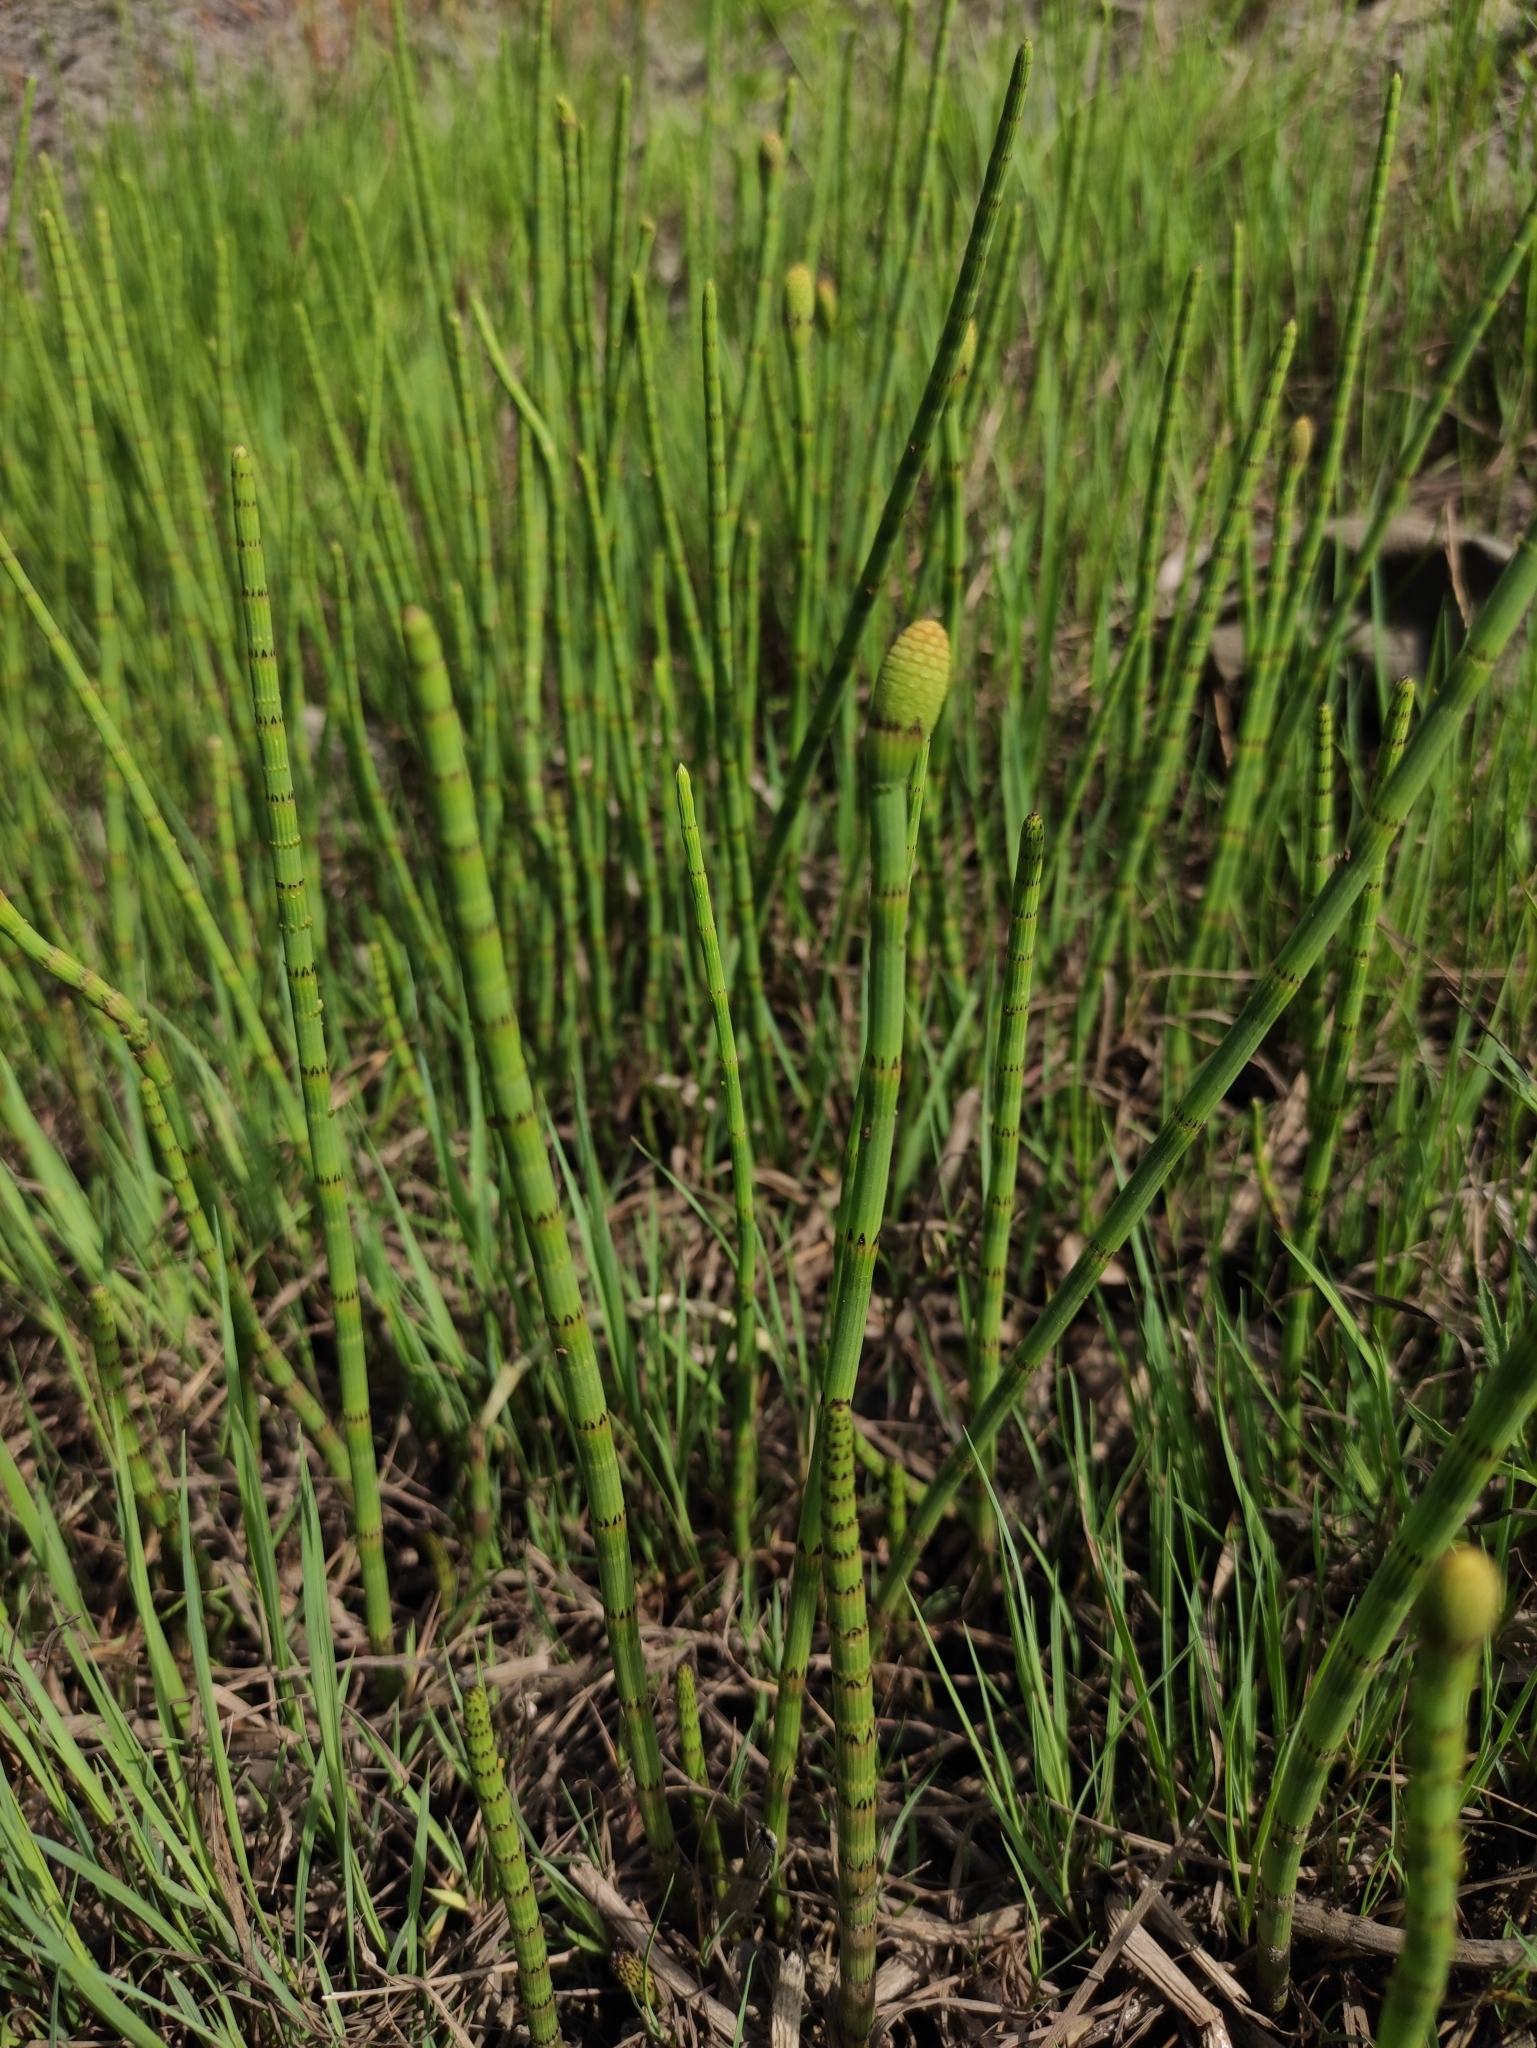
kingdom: Plantae
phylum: Tracheophyta
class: Polypodiopsida
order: Equisetales
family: Equisetaceae
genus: Equisetum
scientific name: Equisetum fluviatile
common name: Water horsetail
